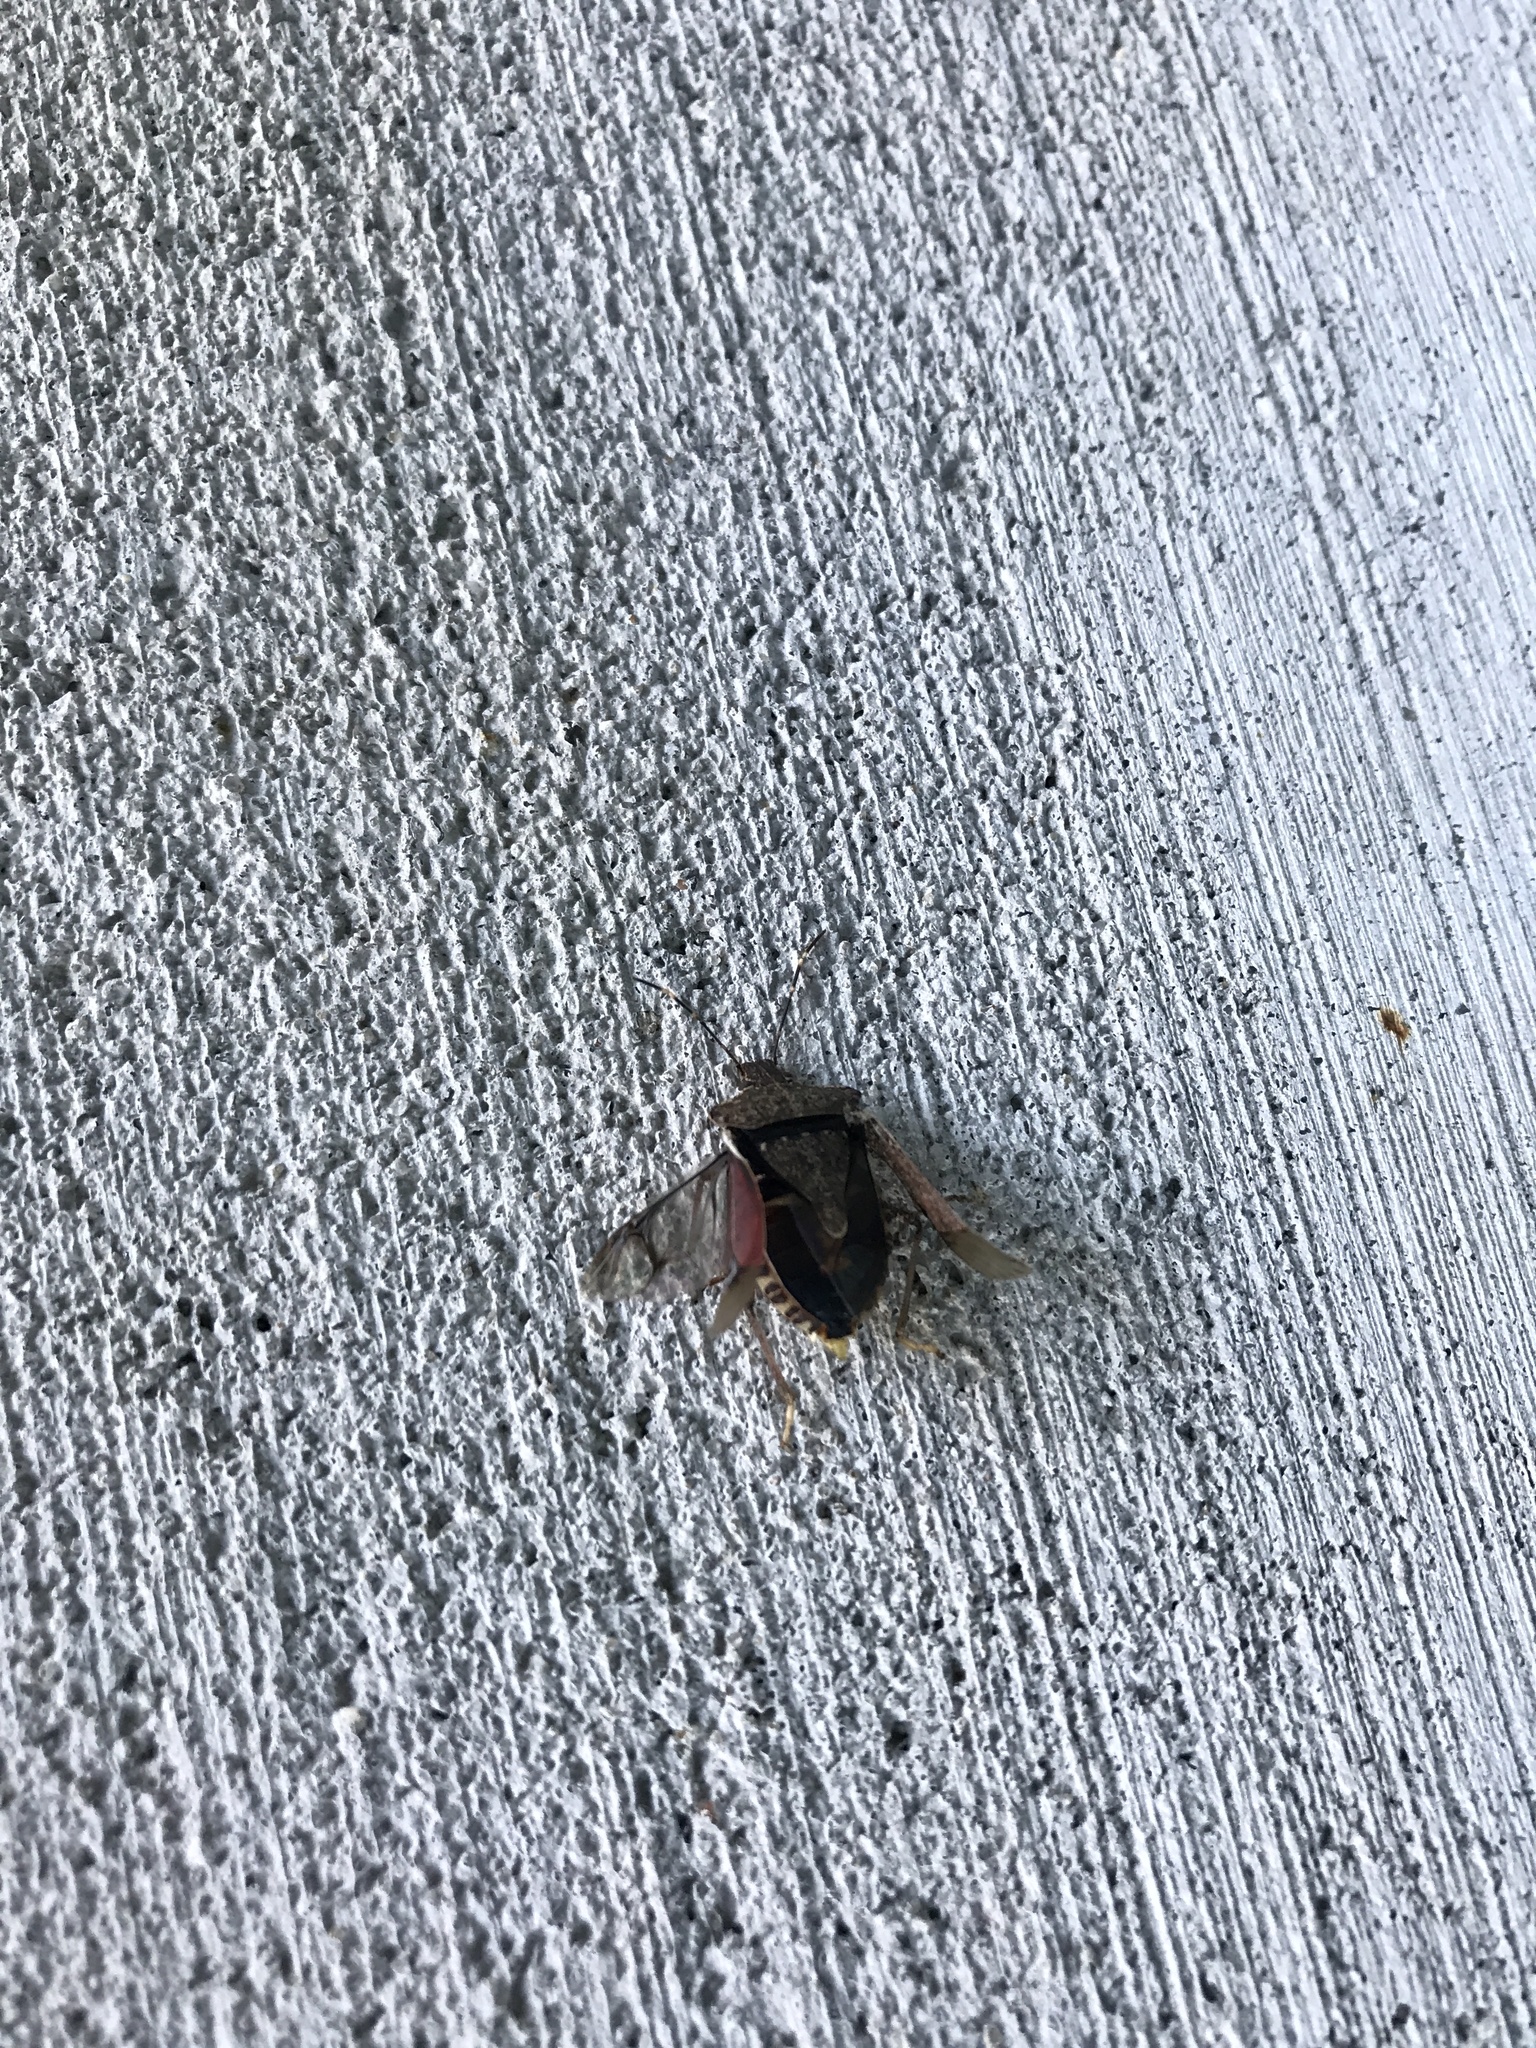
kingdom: Animalia
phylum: Arthropoda
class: Insecta
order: Hemiptera
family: Pentatomidae
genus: Halyomorpha
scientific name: Halyomorpha halys
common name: Brown marmorated stink bug
